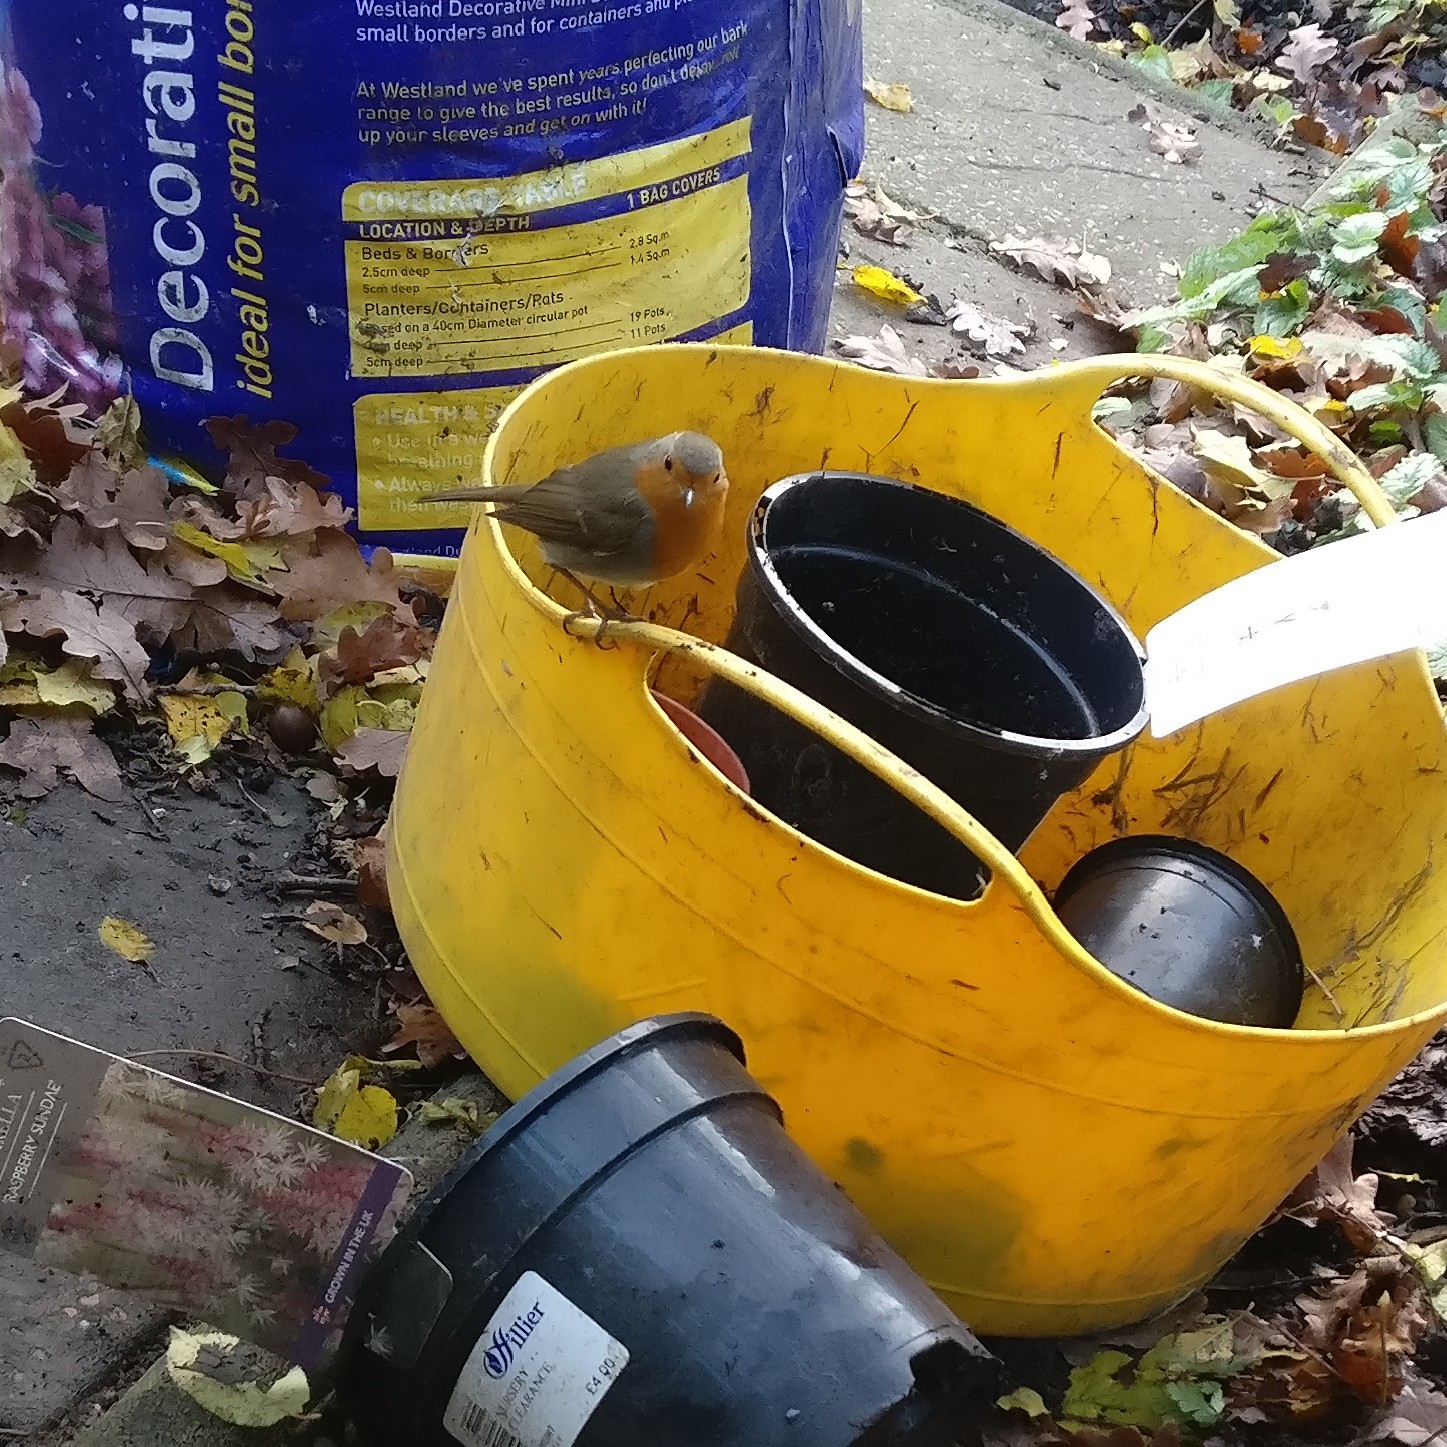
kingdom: Animalia
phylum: Chordata
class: Aves
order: Passeriformes
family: Muscicapidae
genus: Erithacus
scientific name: Erithacus rubecula
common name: European robin
